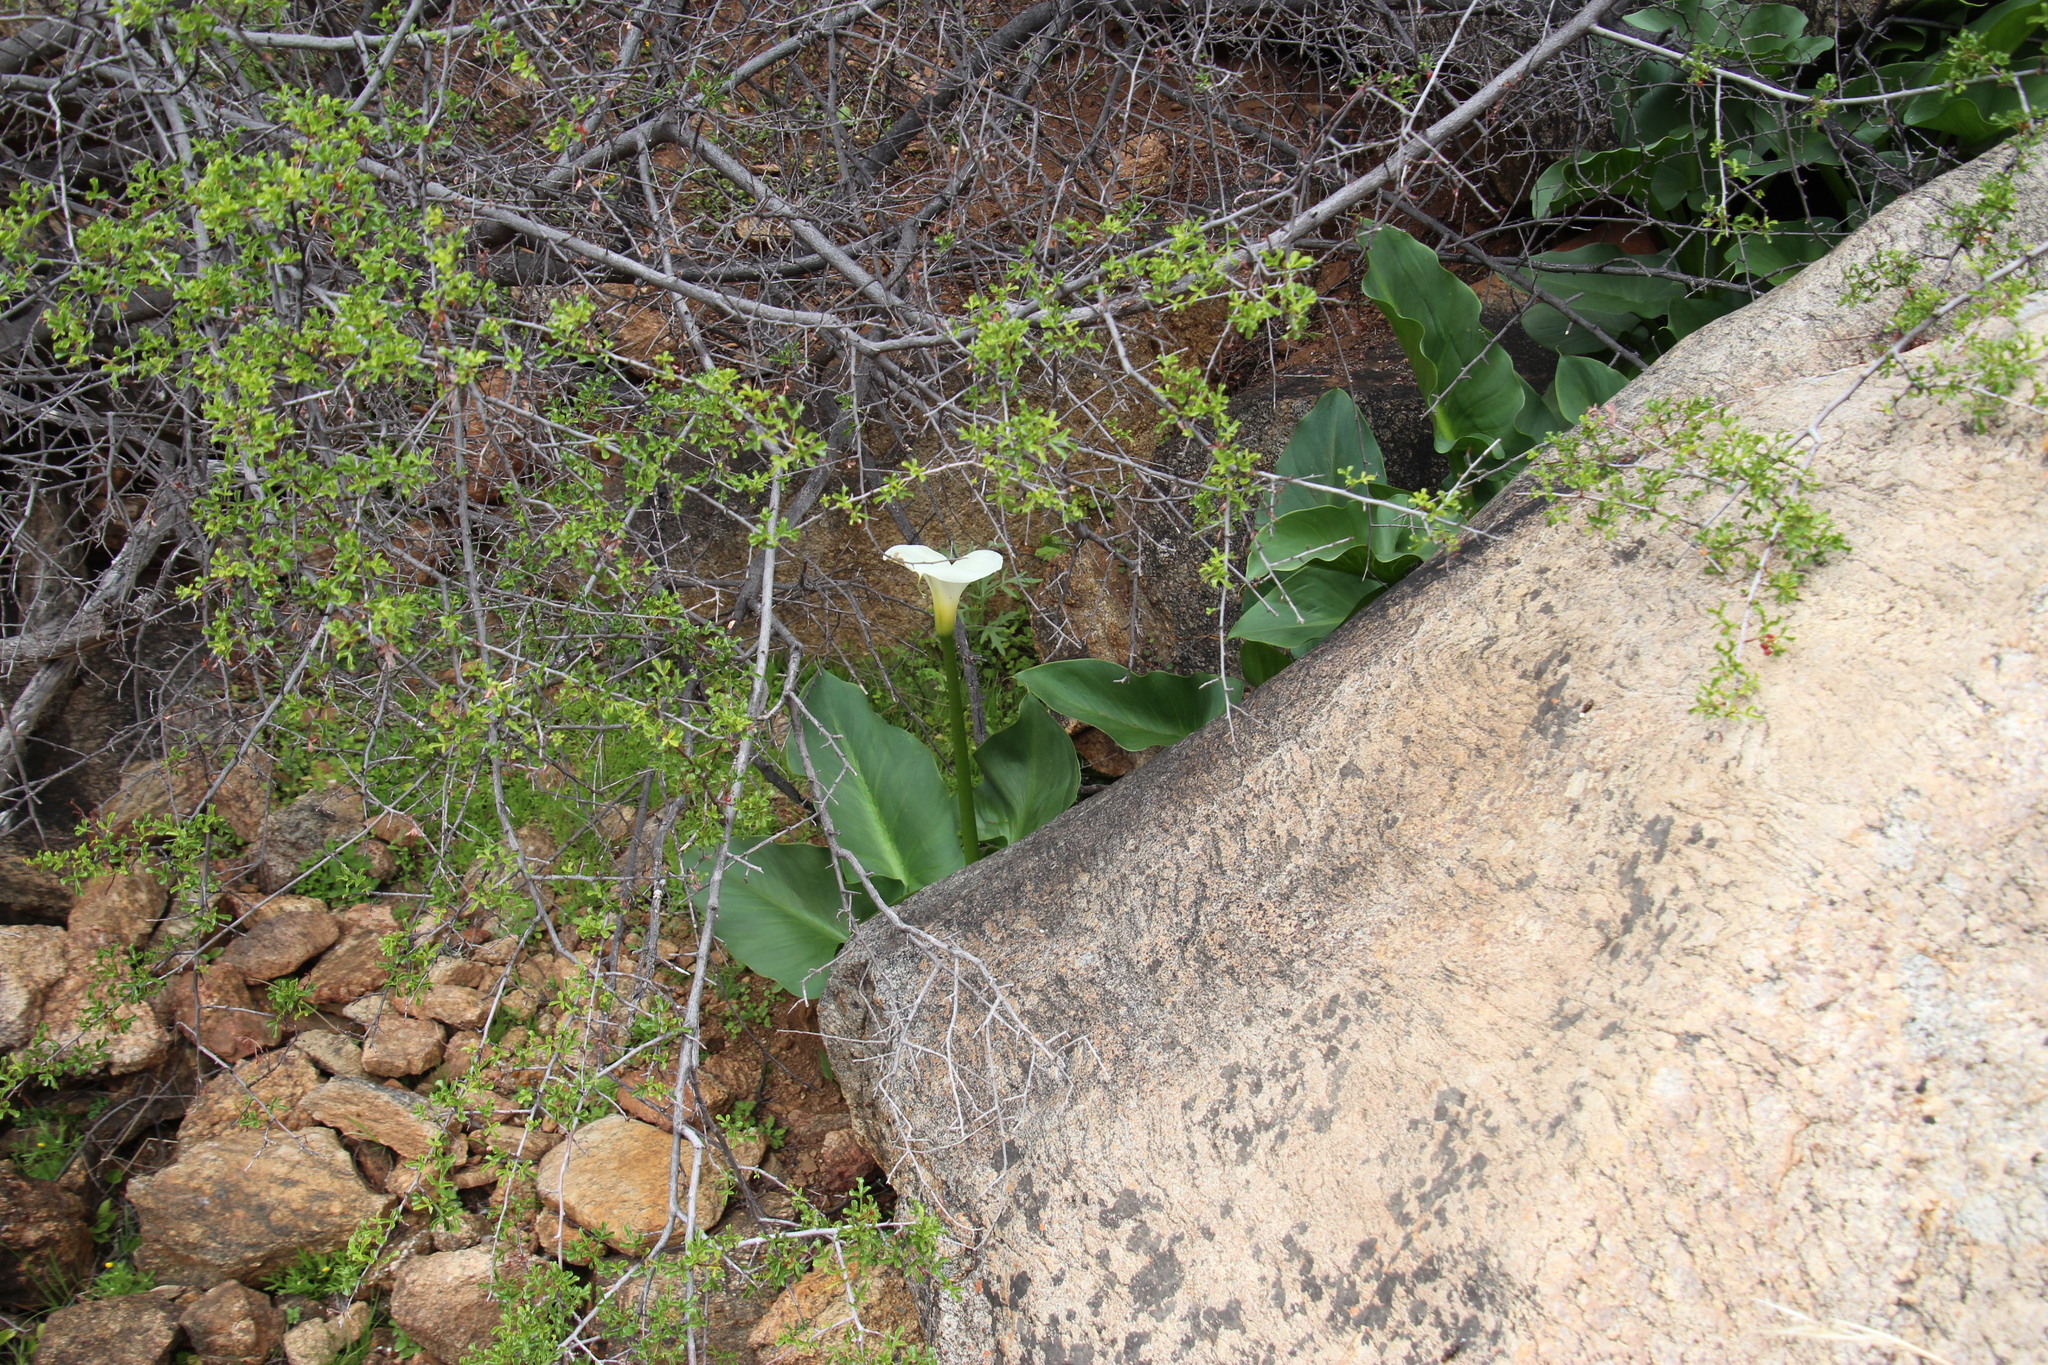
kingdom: Plantae
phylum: Tracheophyta
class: Liliopsida
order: Alismatales
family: Araceae
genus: Zantedeschia
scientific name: Zantedeschia aethiopica
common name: Altar-lily
